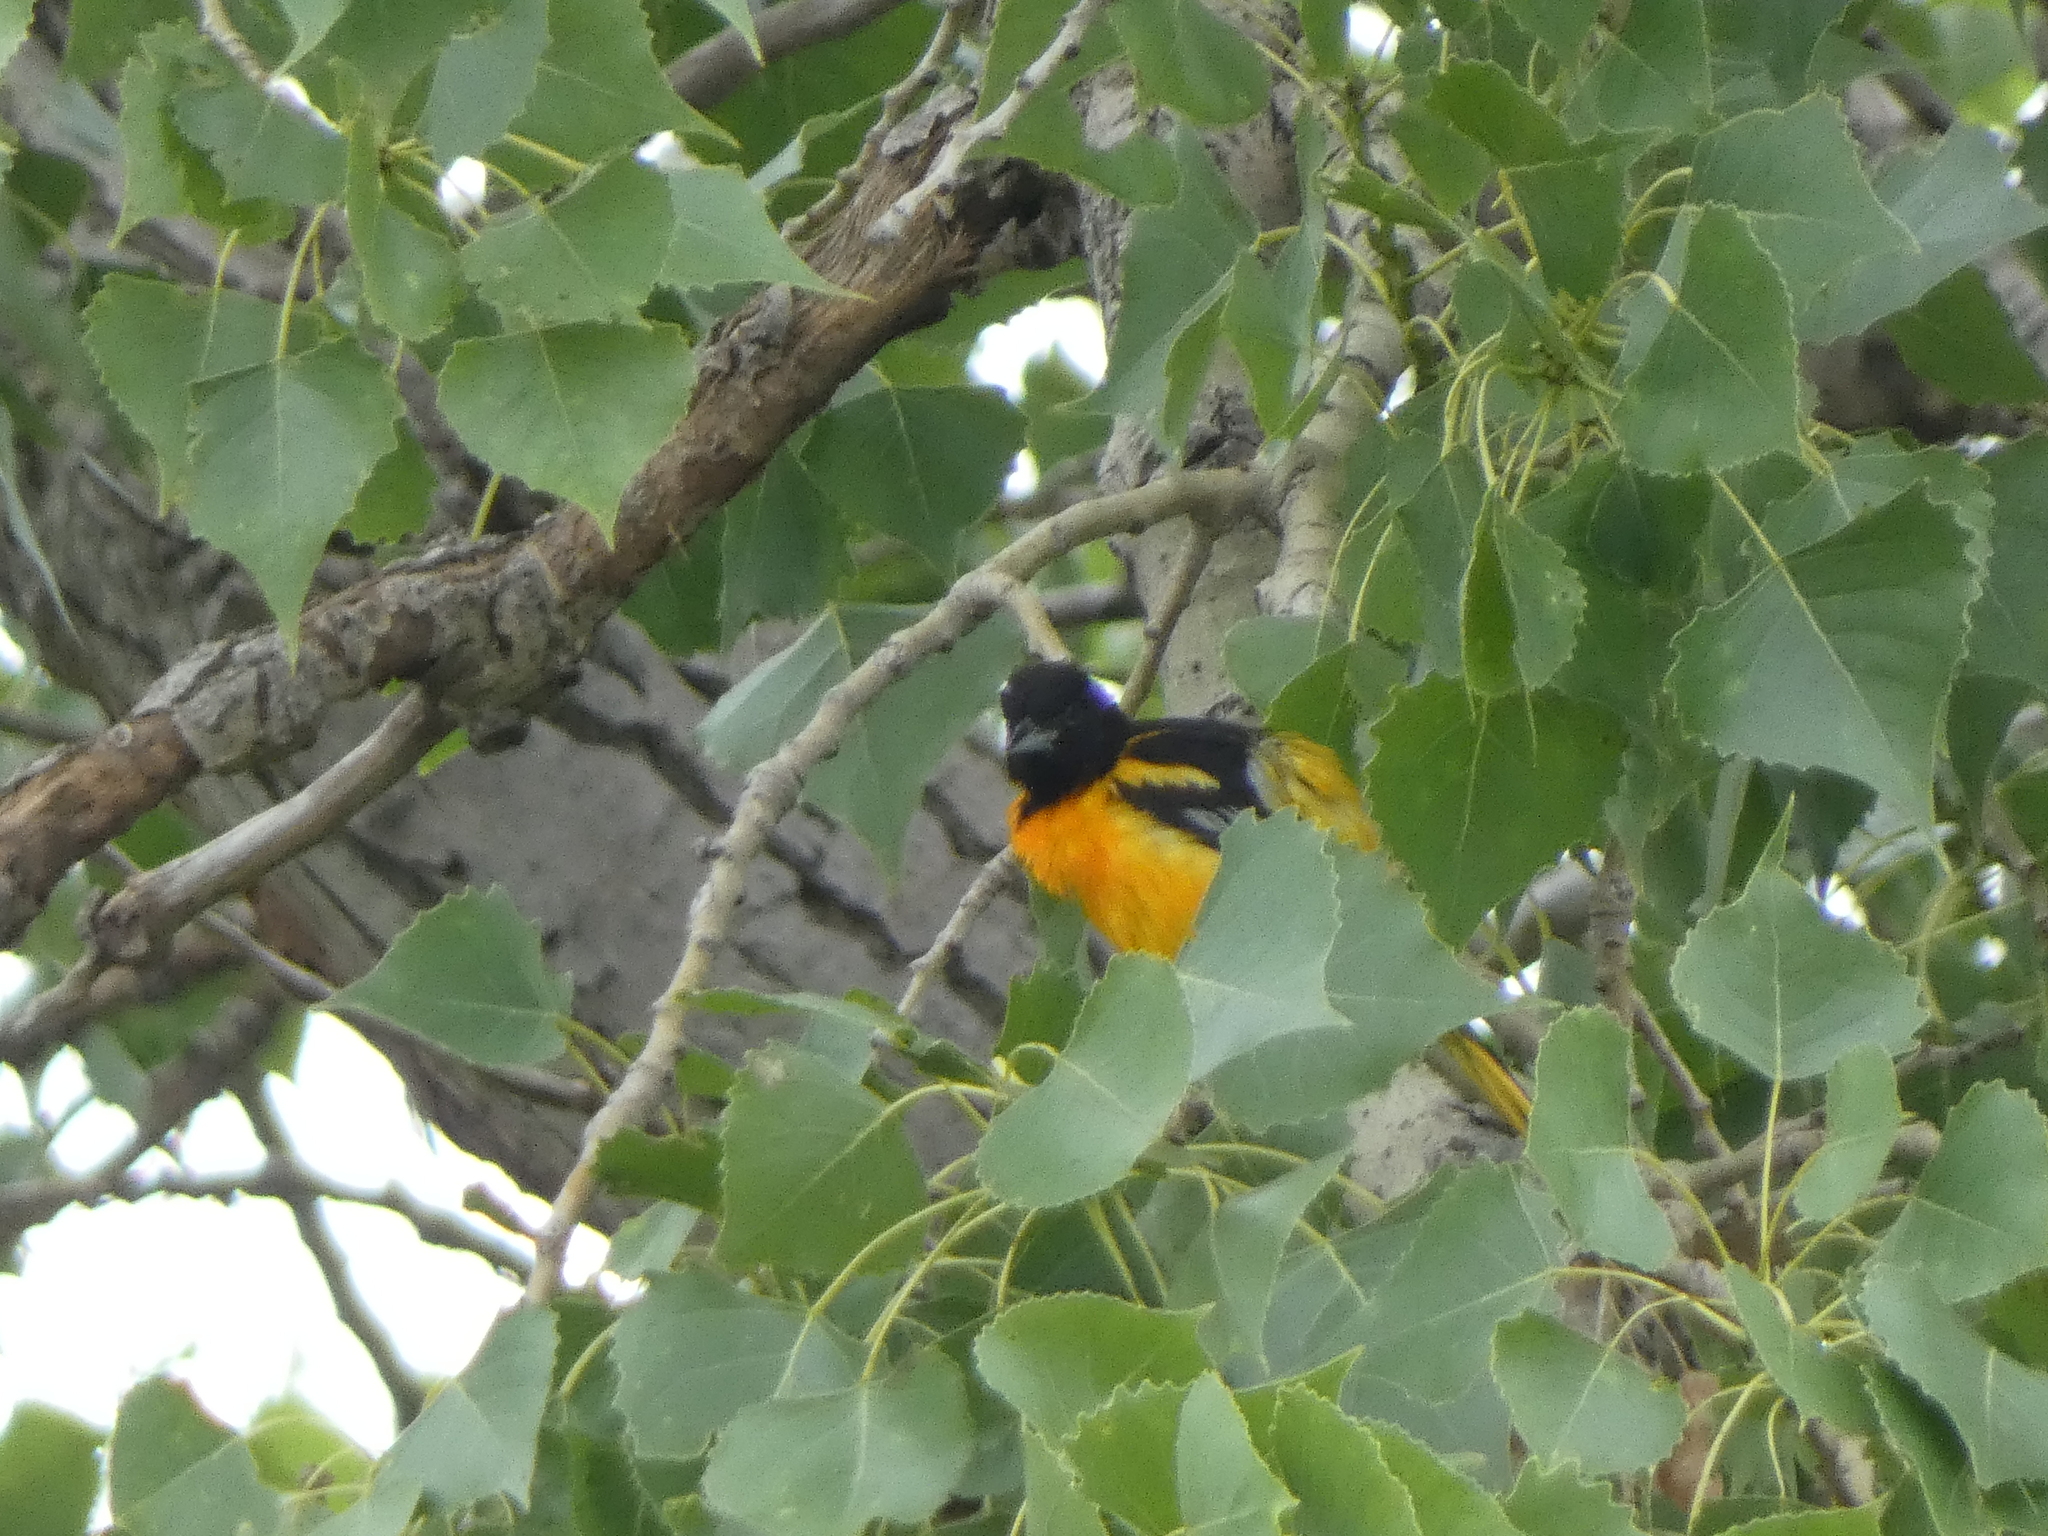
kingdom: Animalia
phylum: Chordata
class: Aves
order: Passeriformes
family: Icteridae
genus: Icterus
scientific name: Icterus galbula
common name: Baltimore oriole
